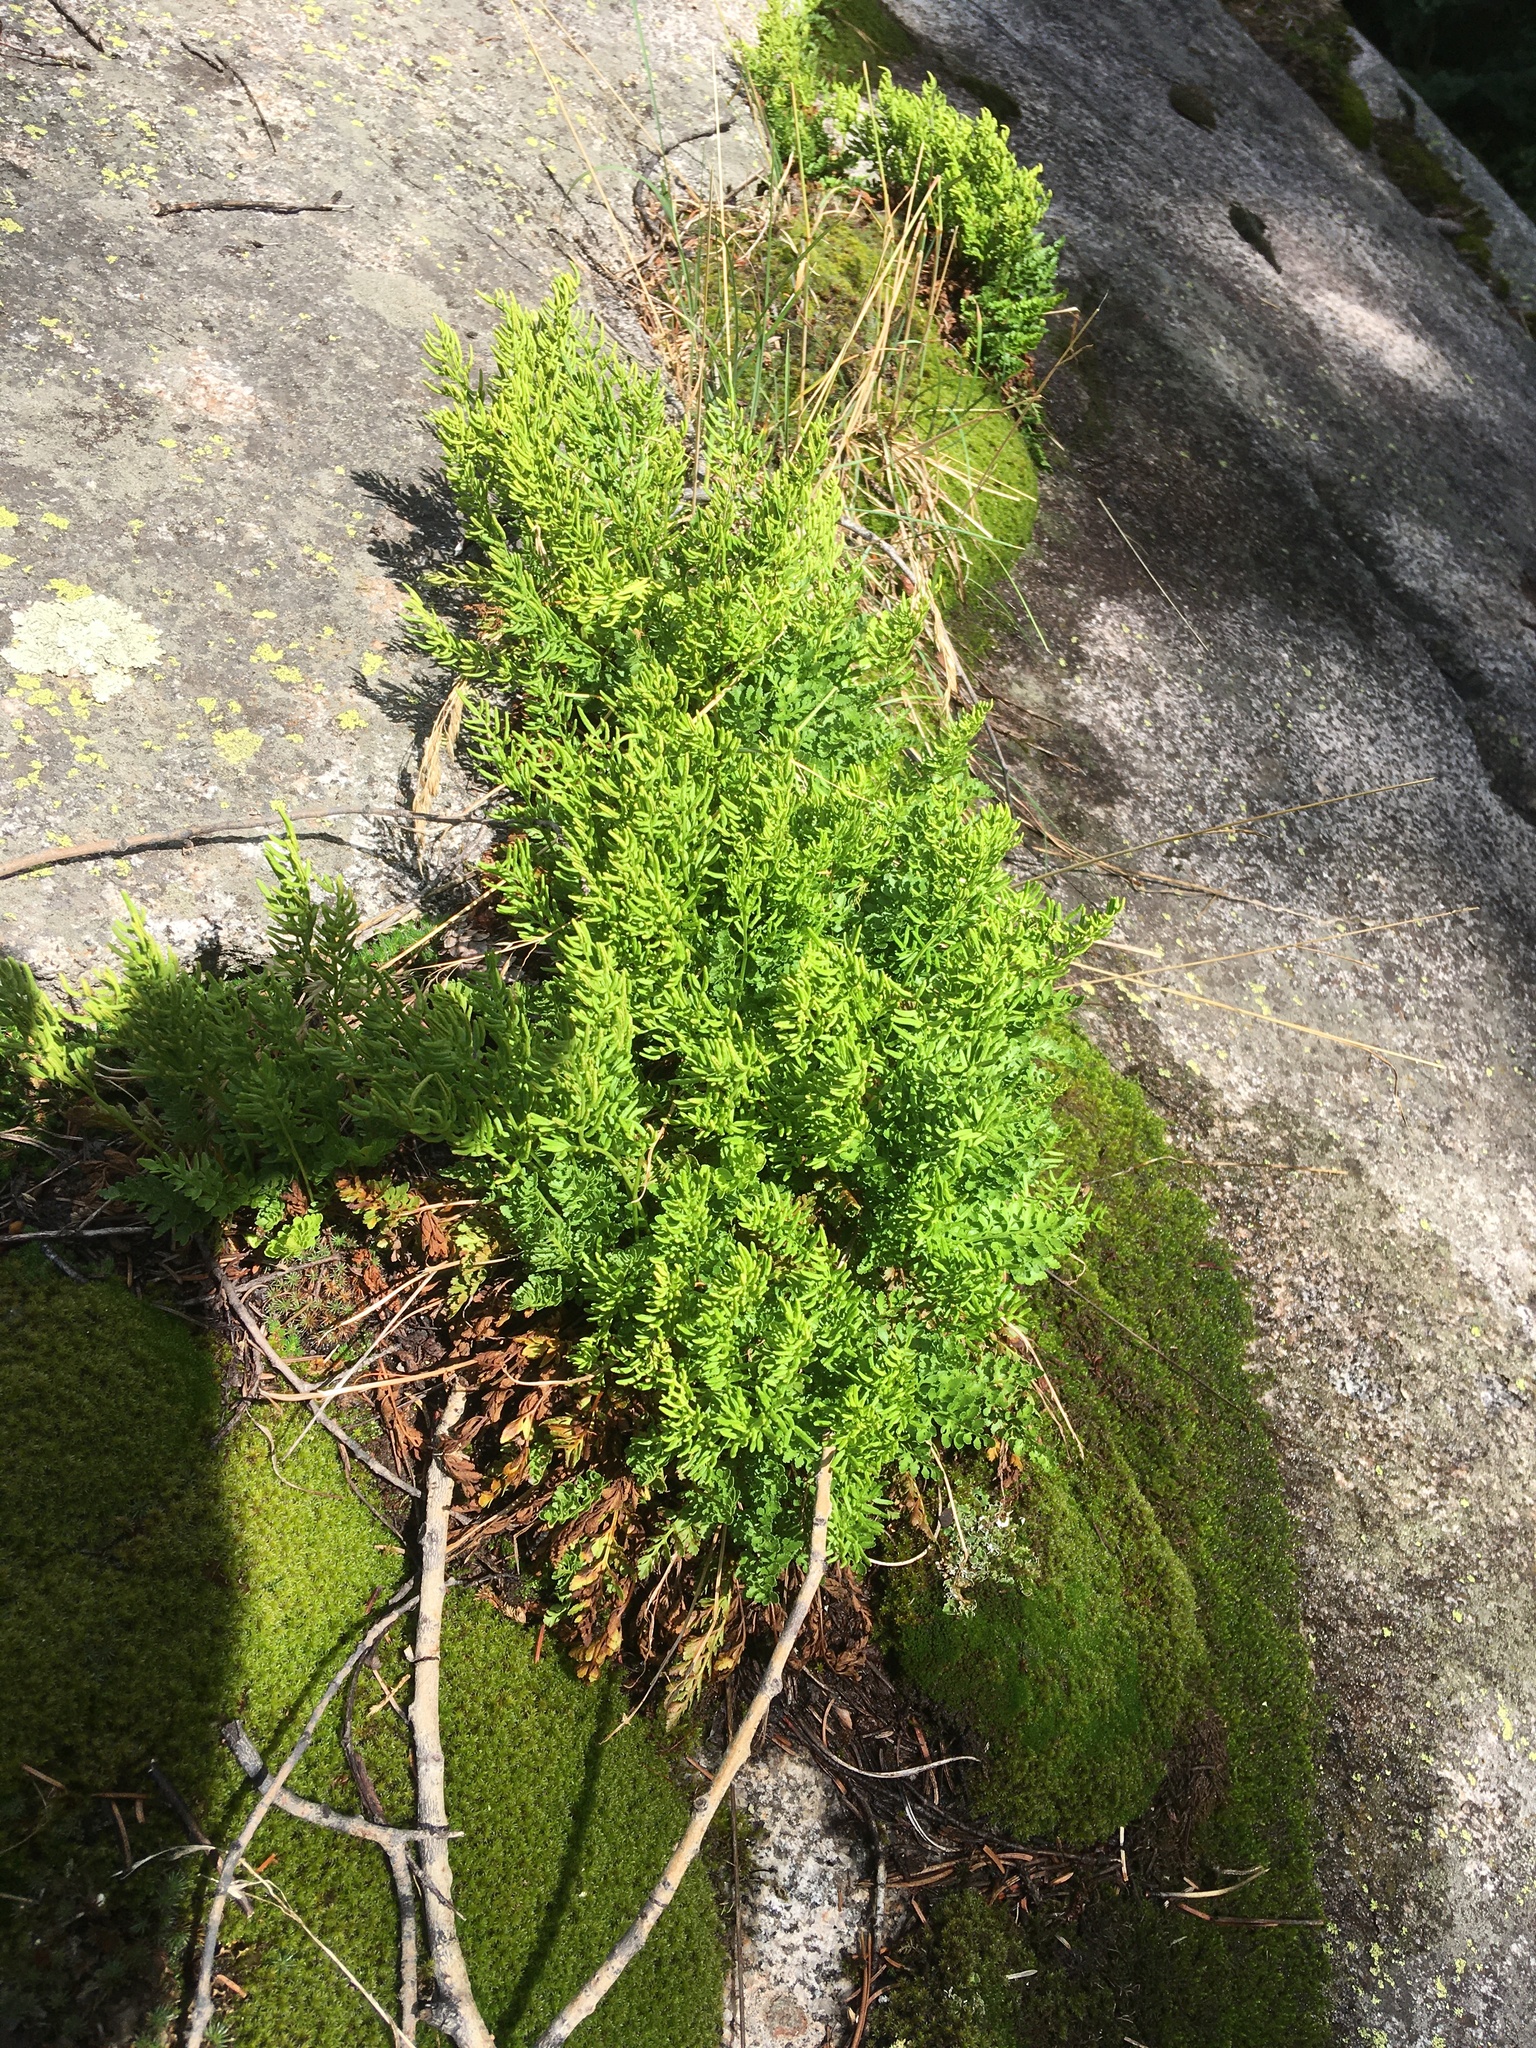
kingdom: Plantae
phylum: Tracheophyta
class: Polypodiopsida
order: Polypodiales
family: Pteridaceae
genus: Cryptogramma
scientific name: Cryptogramma acrostichoides
